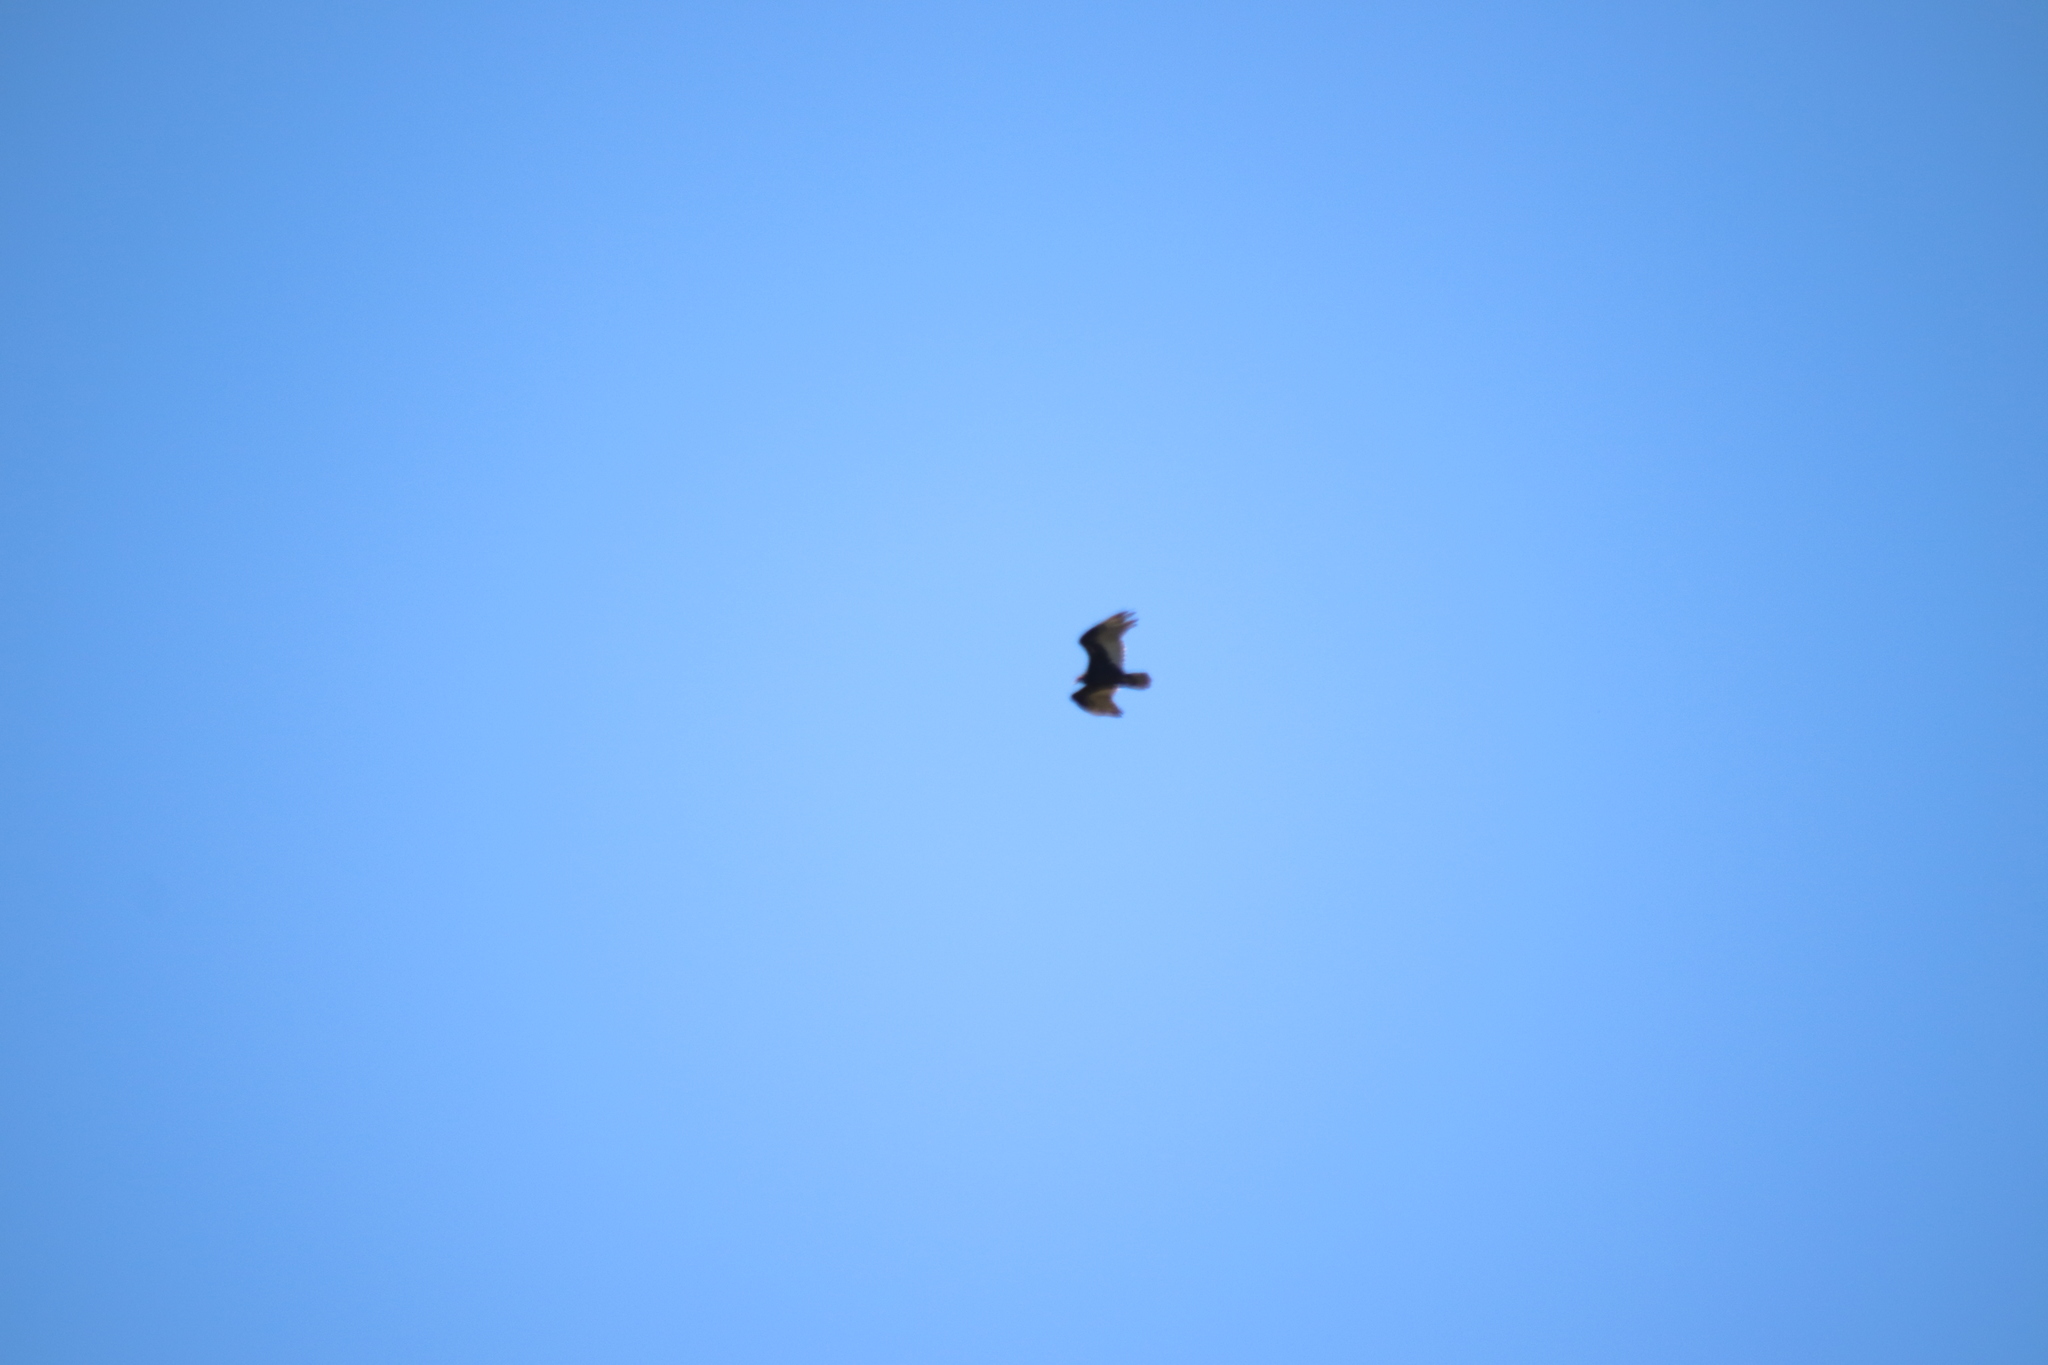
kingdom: Animalia
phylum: Chordata
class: Aves
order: Accipitriformes
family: Cathartidae
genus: Cathartes
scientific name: Cathartes aura
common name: Turkey vulture
